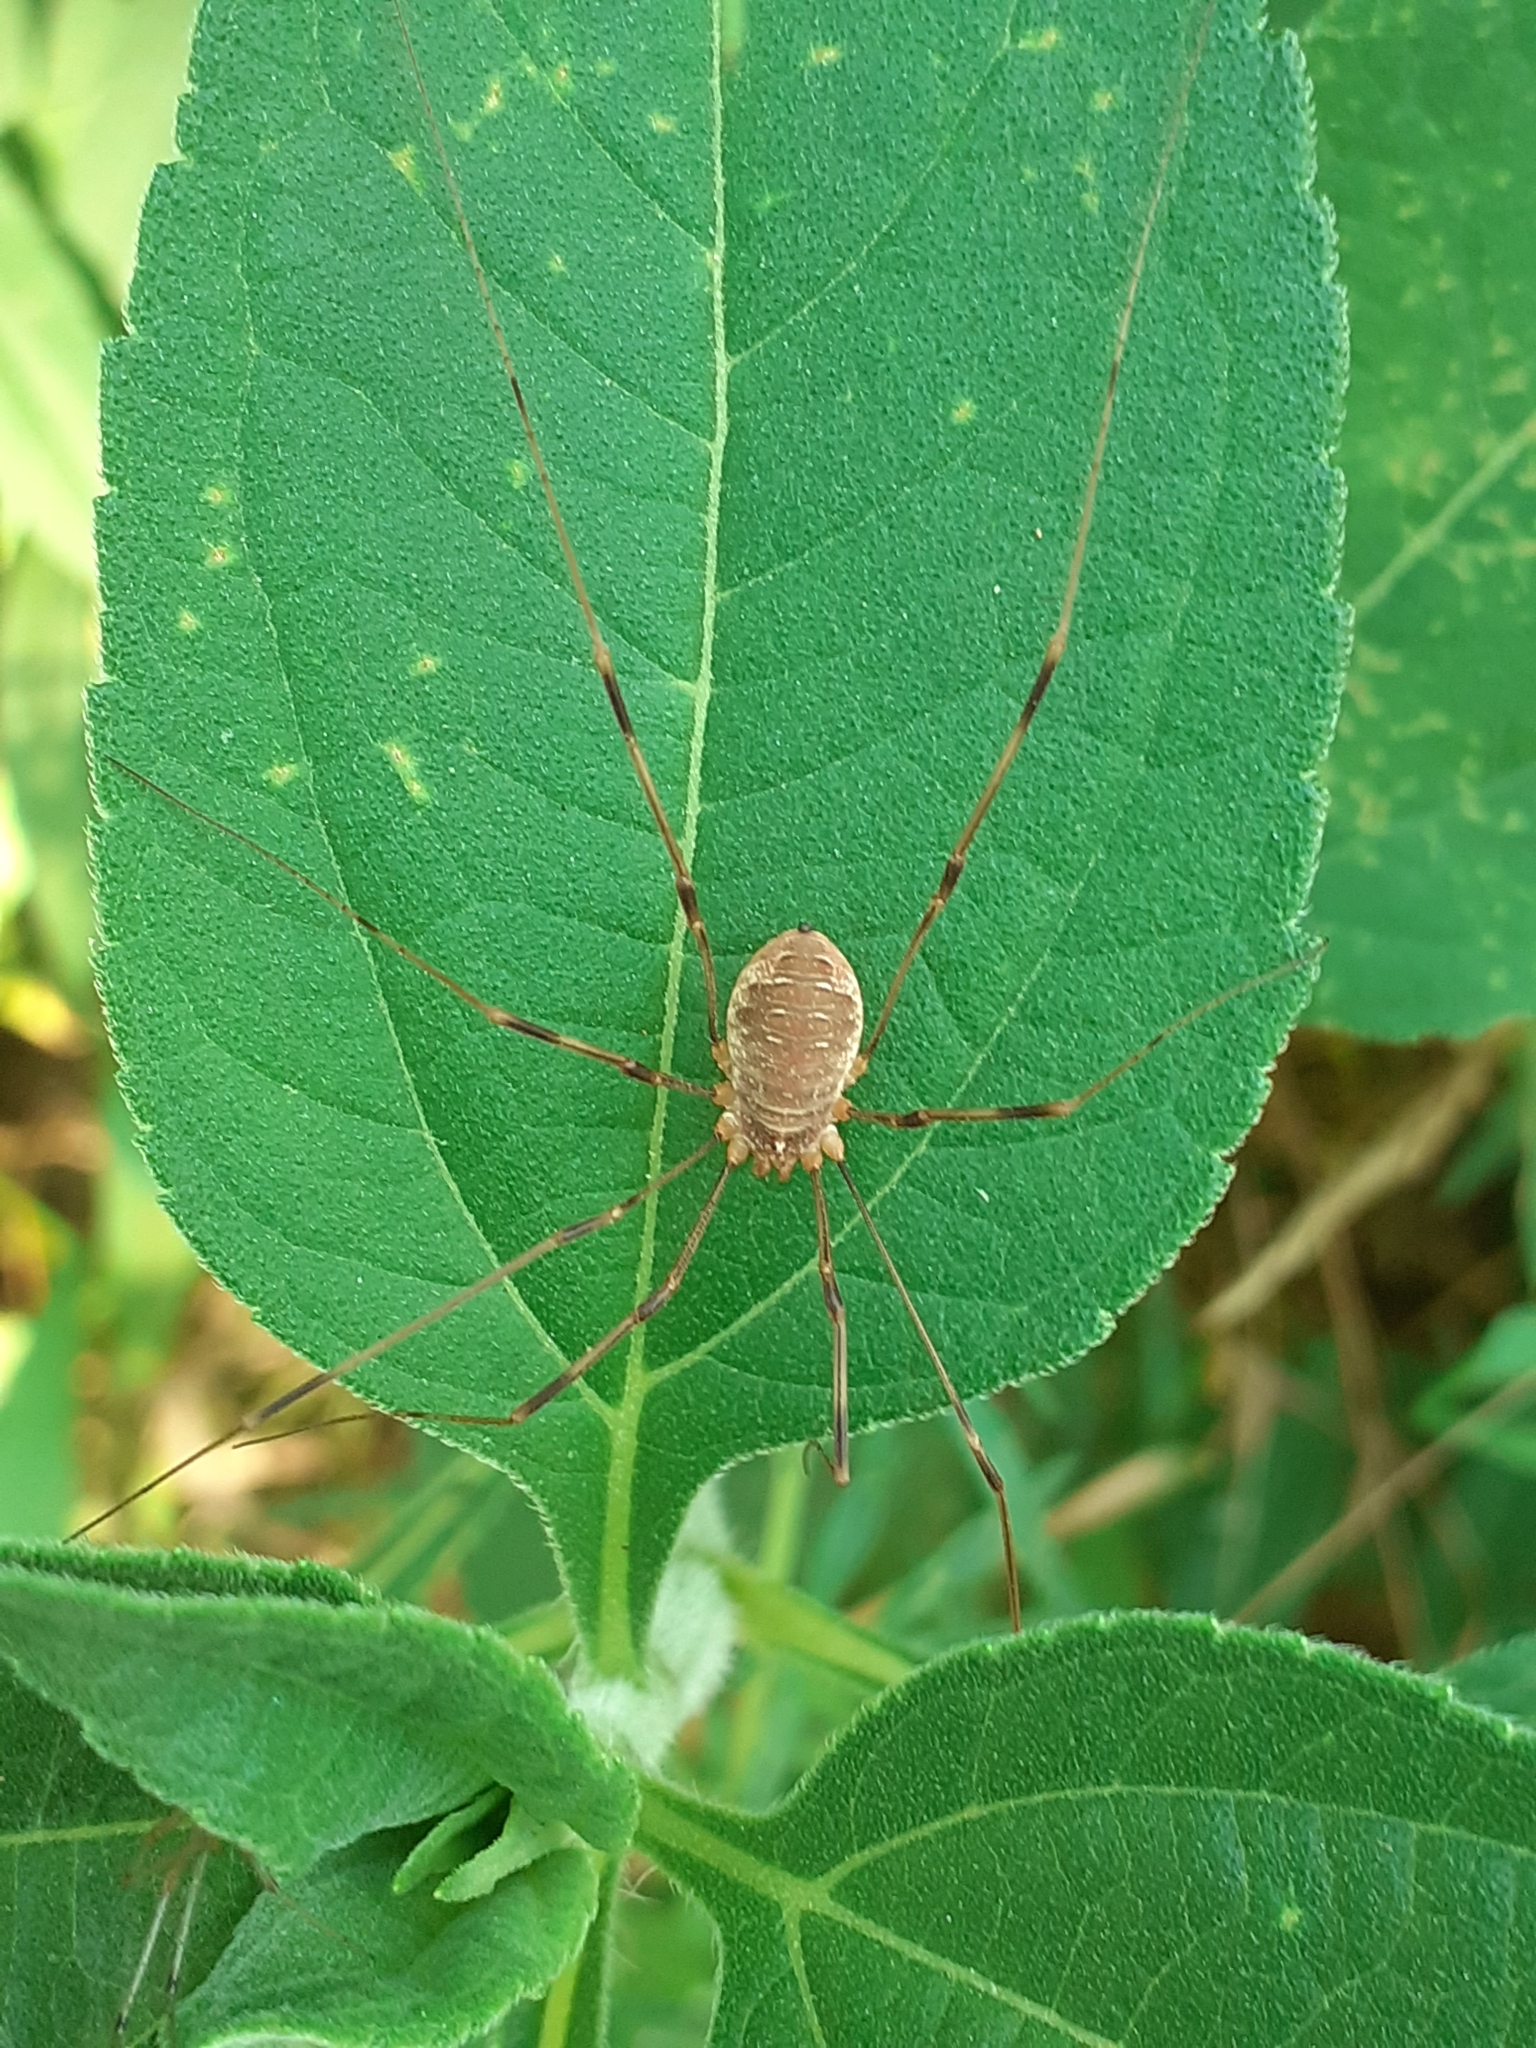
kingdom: Animalia
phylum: Arthropoda
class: Arachnida
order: Opiliones
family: Phalangiidae
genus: Opilio
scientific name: Opilio canestrinii
